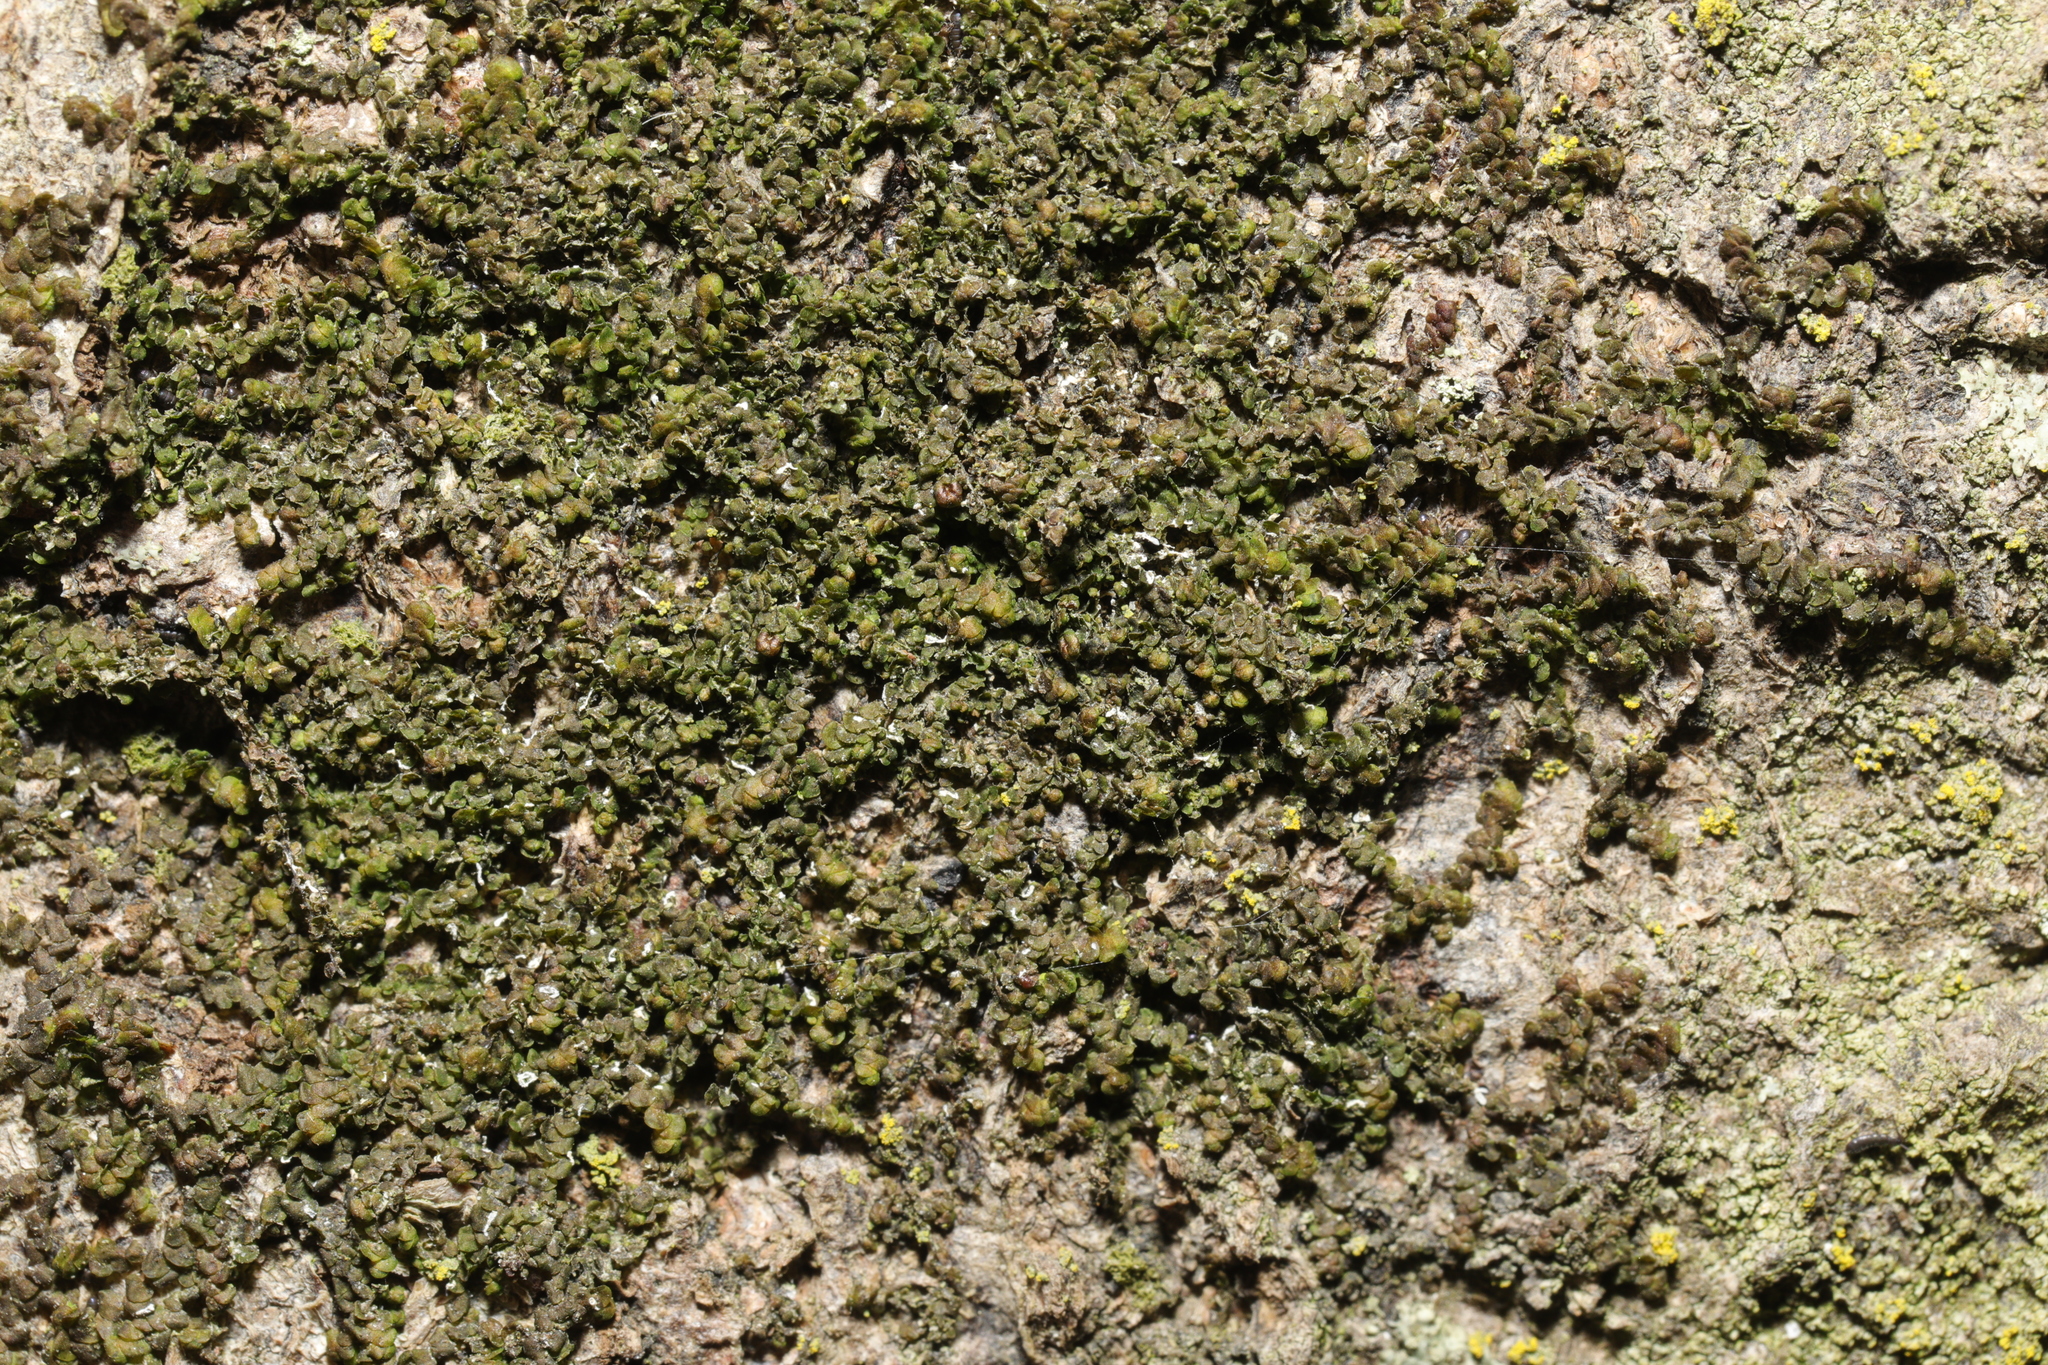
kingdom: Plantae
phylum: Marchantiophyta
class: Jungermanniopsida
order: Porellales
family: Frullaniaceae
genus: Frullania
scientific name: Frullania dilatata
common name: Dilated scalewort
